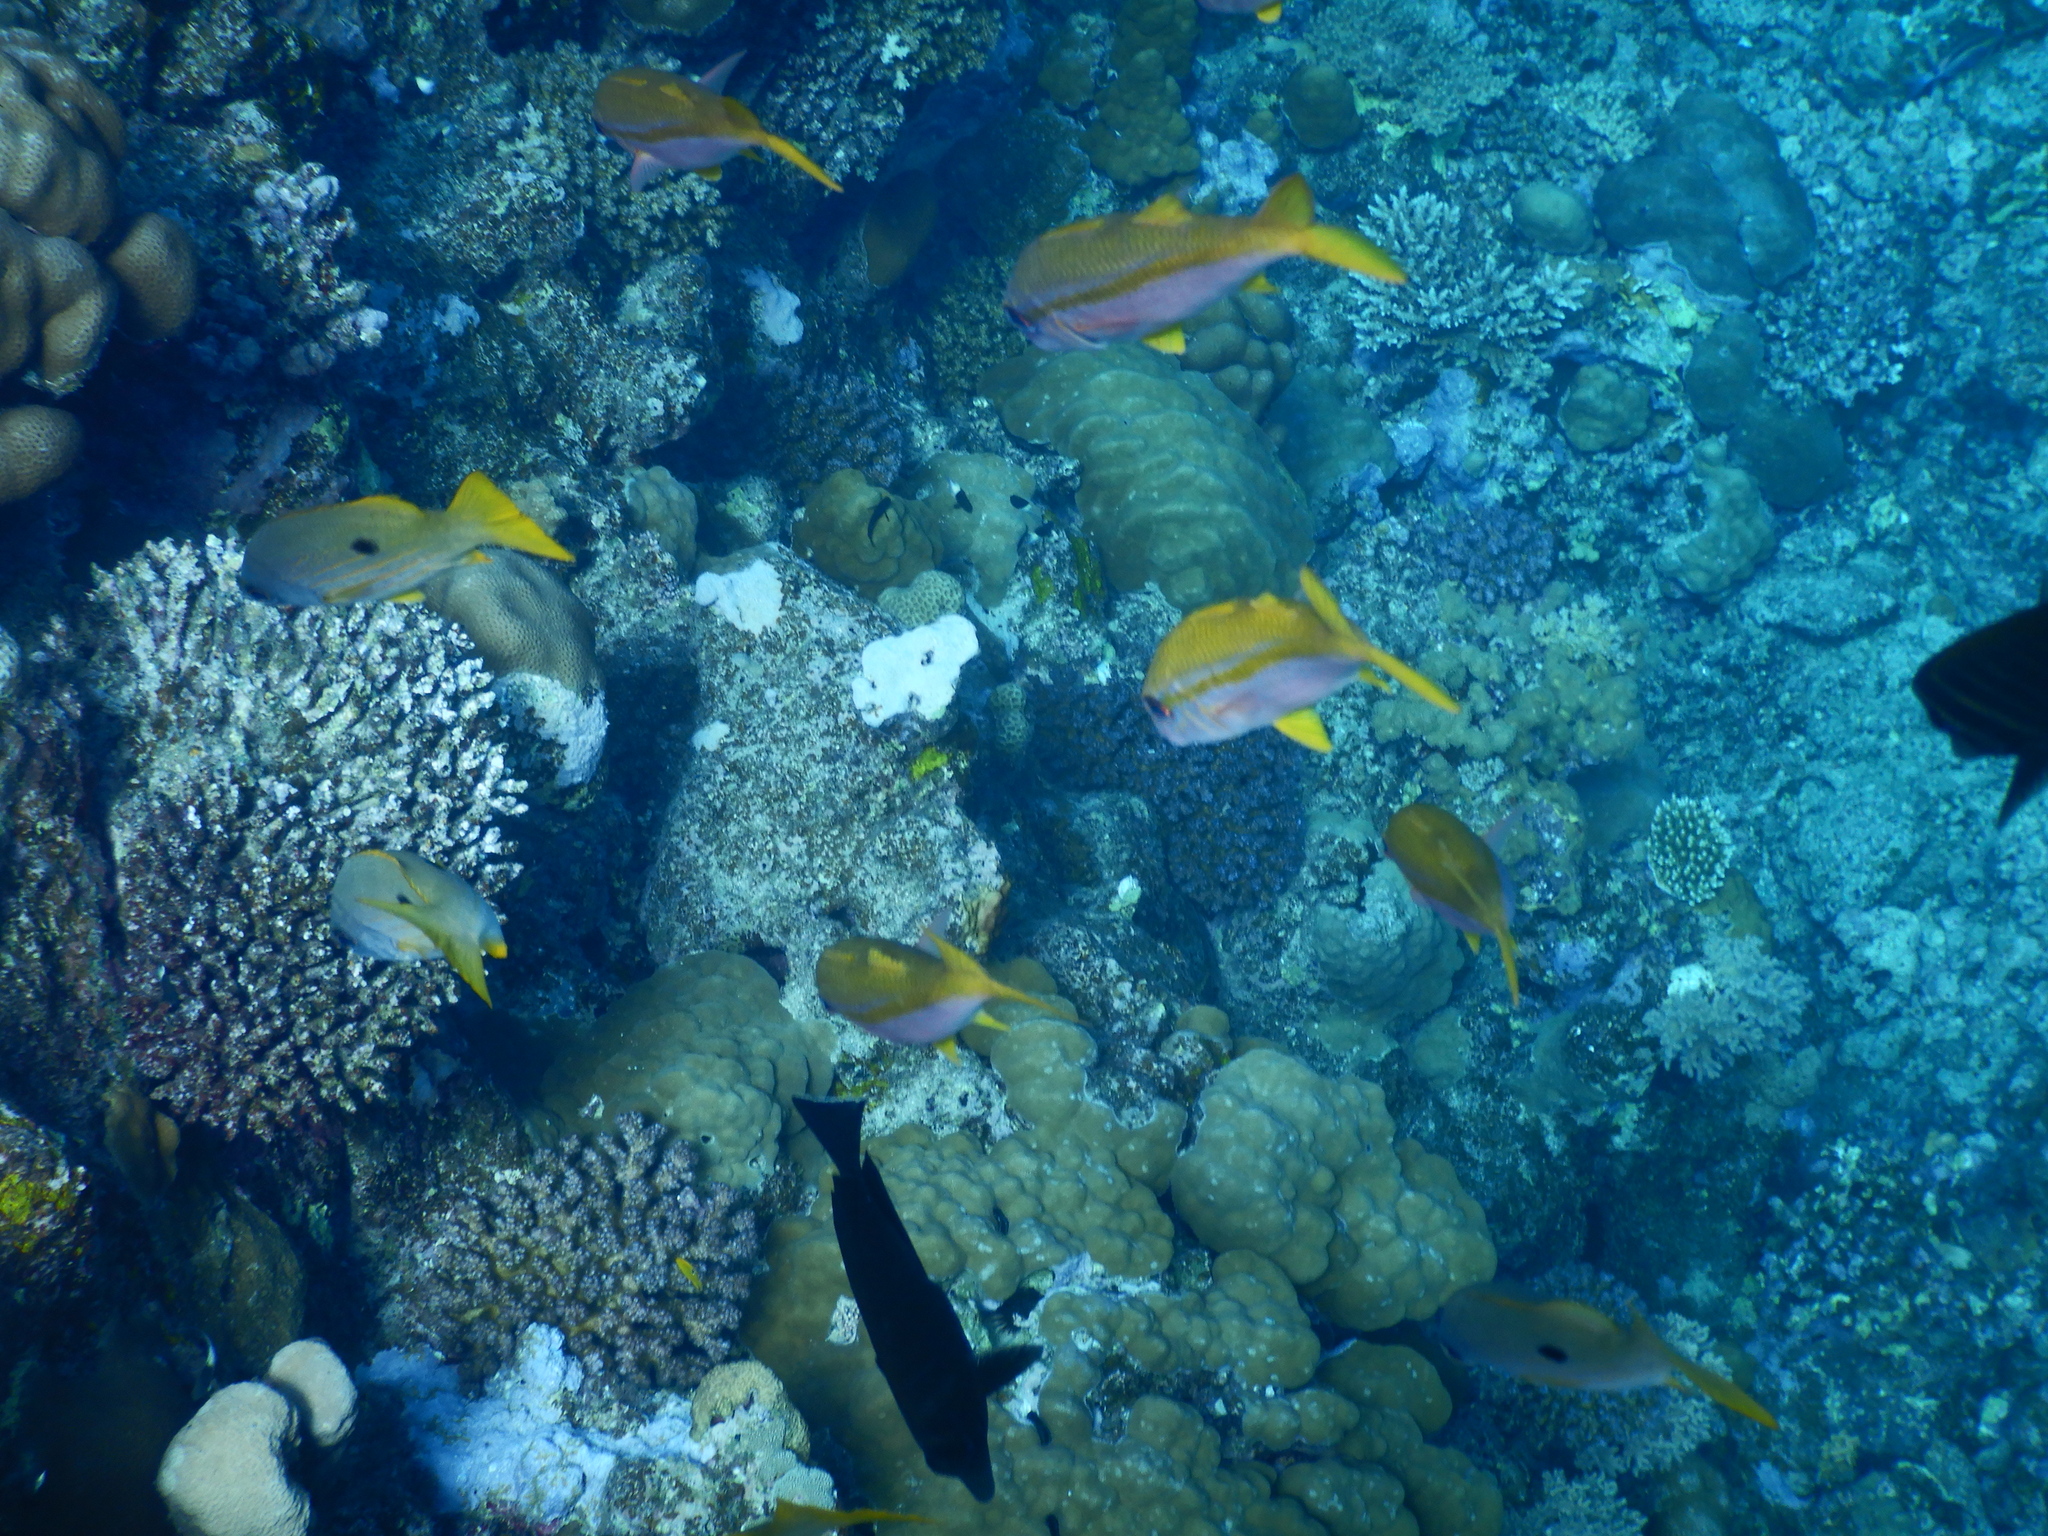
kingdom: Animalia
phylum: Chordata
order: Perciformes
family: Mullidae
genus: Mulloidichthys
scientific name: Mulloidichthys vanicolensis
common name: Yellowfin goatfish
